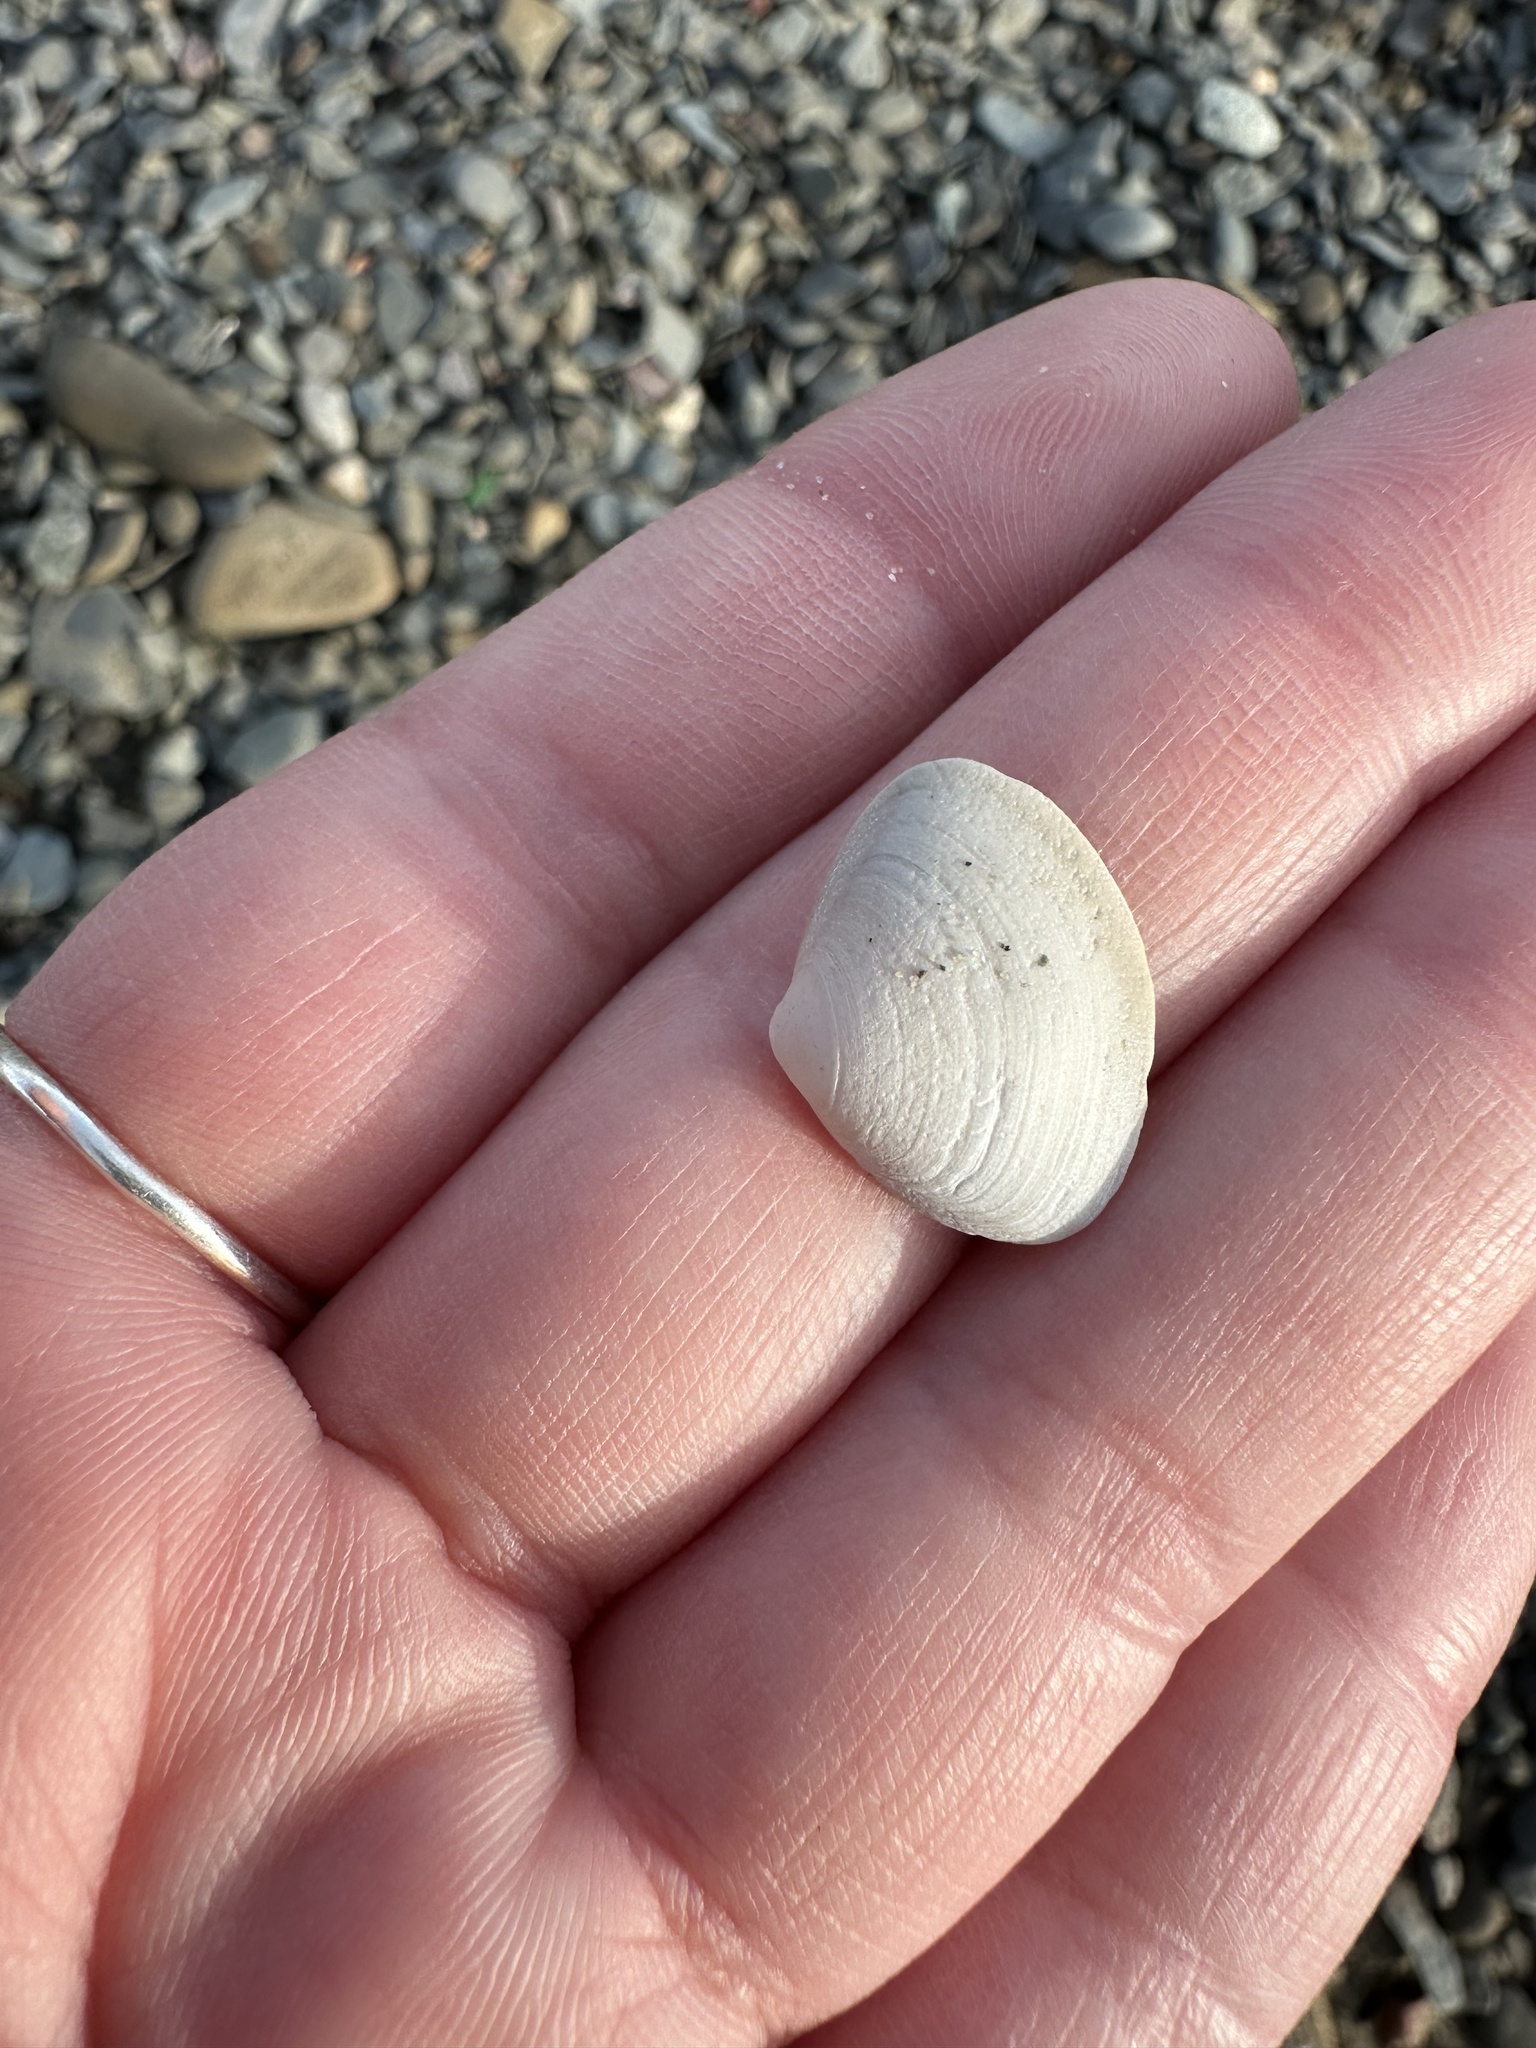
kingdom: Animalia
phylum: Mollusca
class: Bivalvia
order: Venerida
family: Mactridae
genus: Spisula
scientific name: Spisula solidissima
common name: Atlantic surf clam
